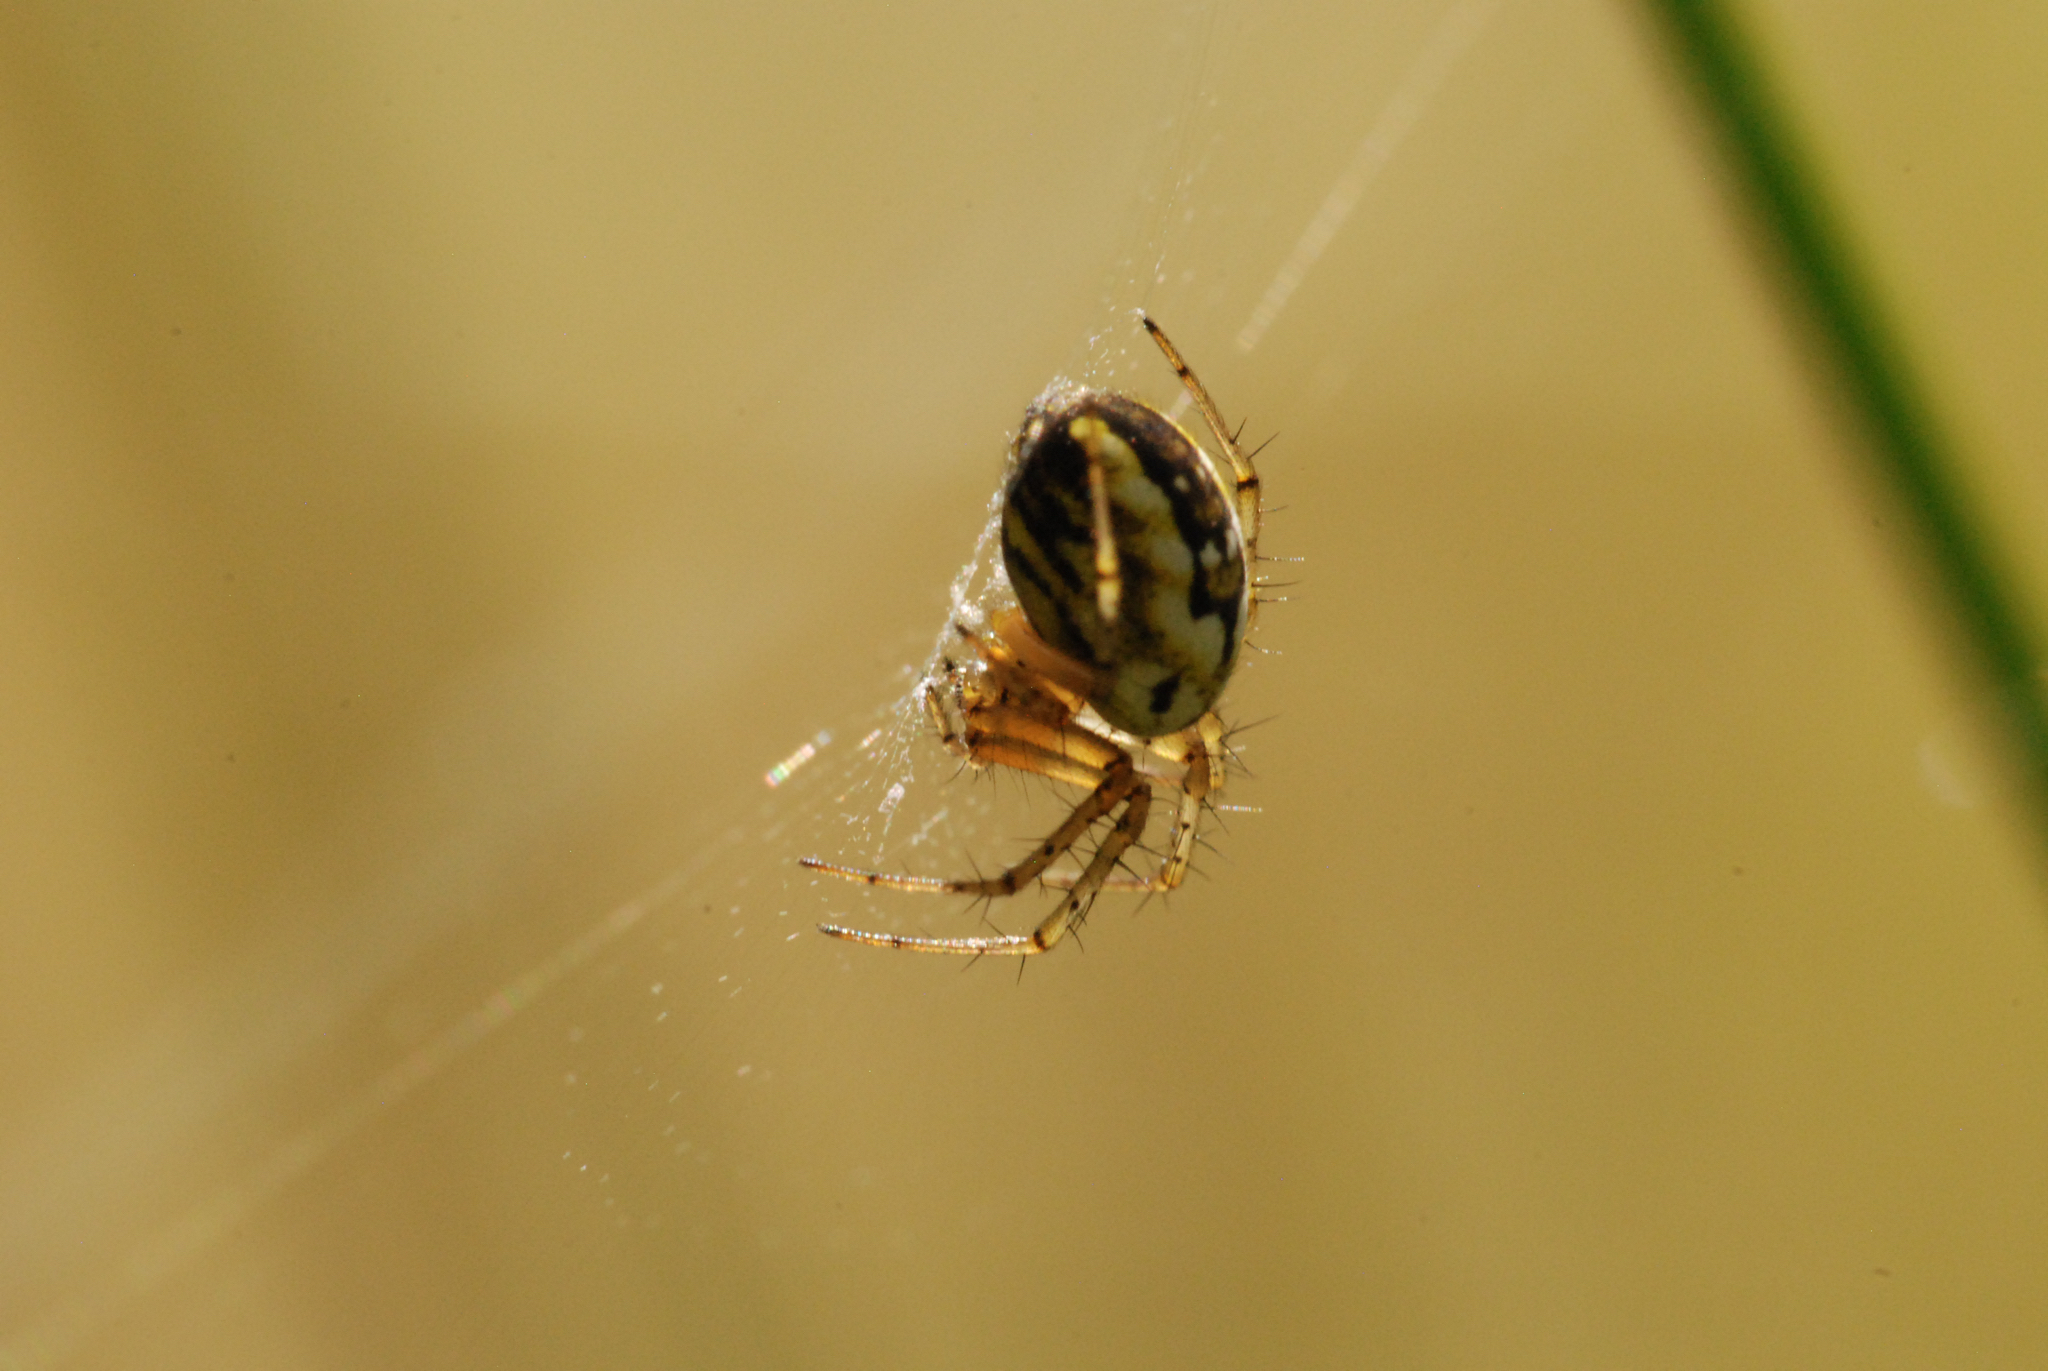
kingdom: Animalia
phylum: Arthropoda
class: Arachnida
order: Araneae
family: Araneidae
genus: Mangora
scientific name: Mangora acalypha
